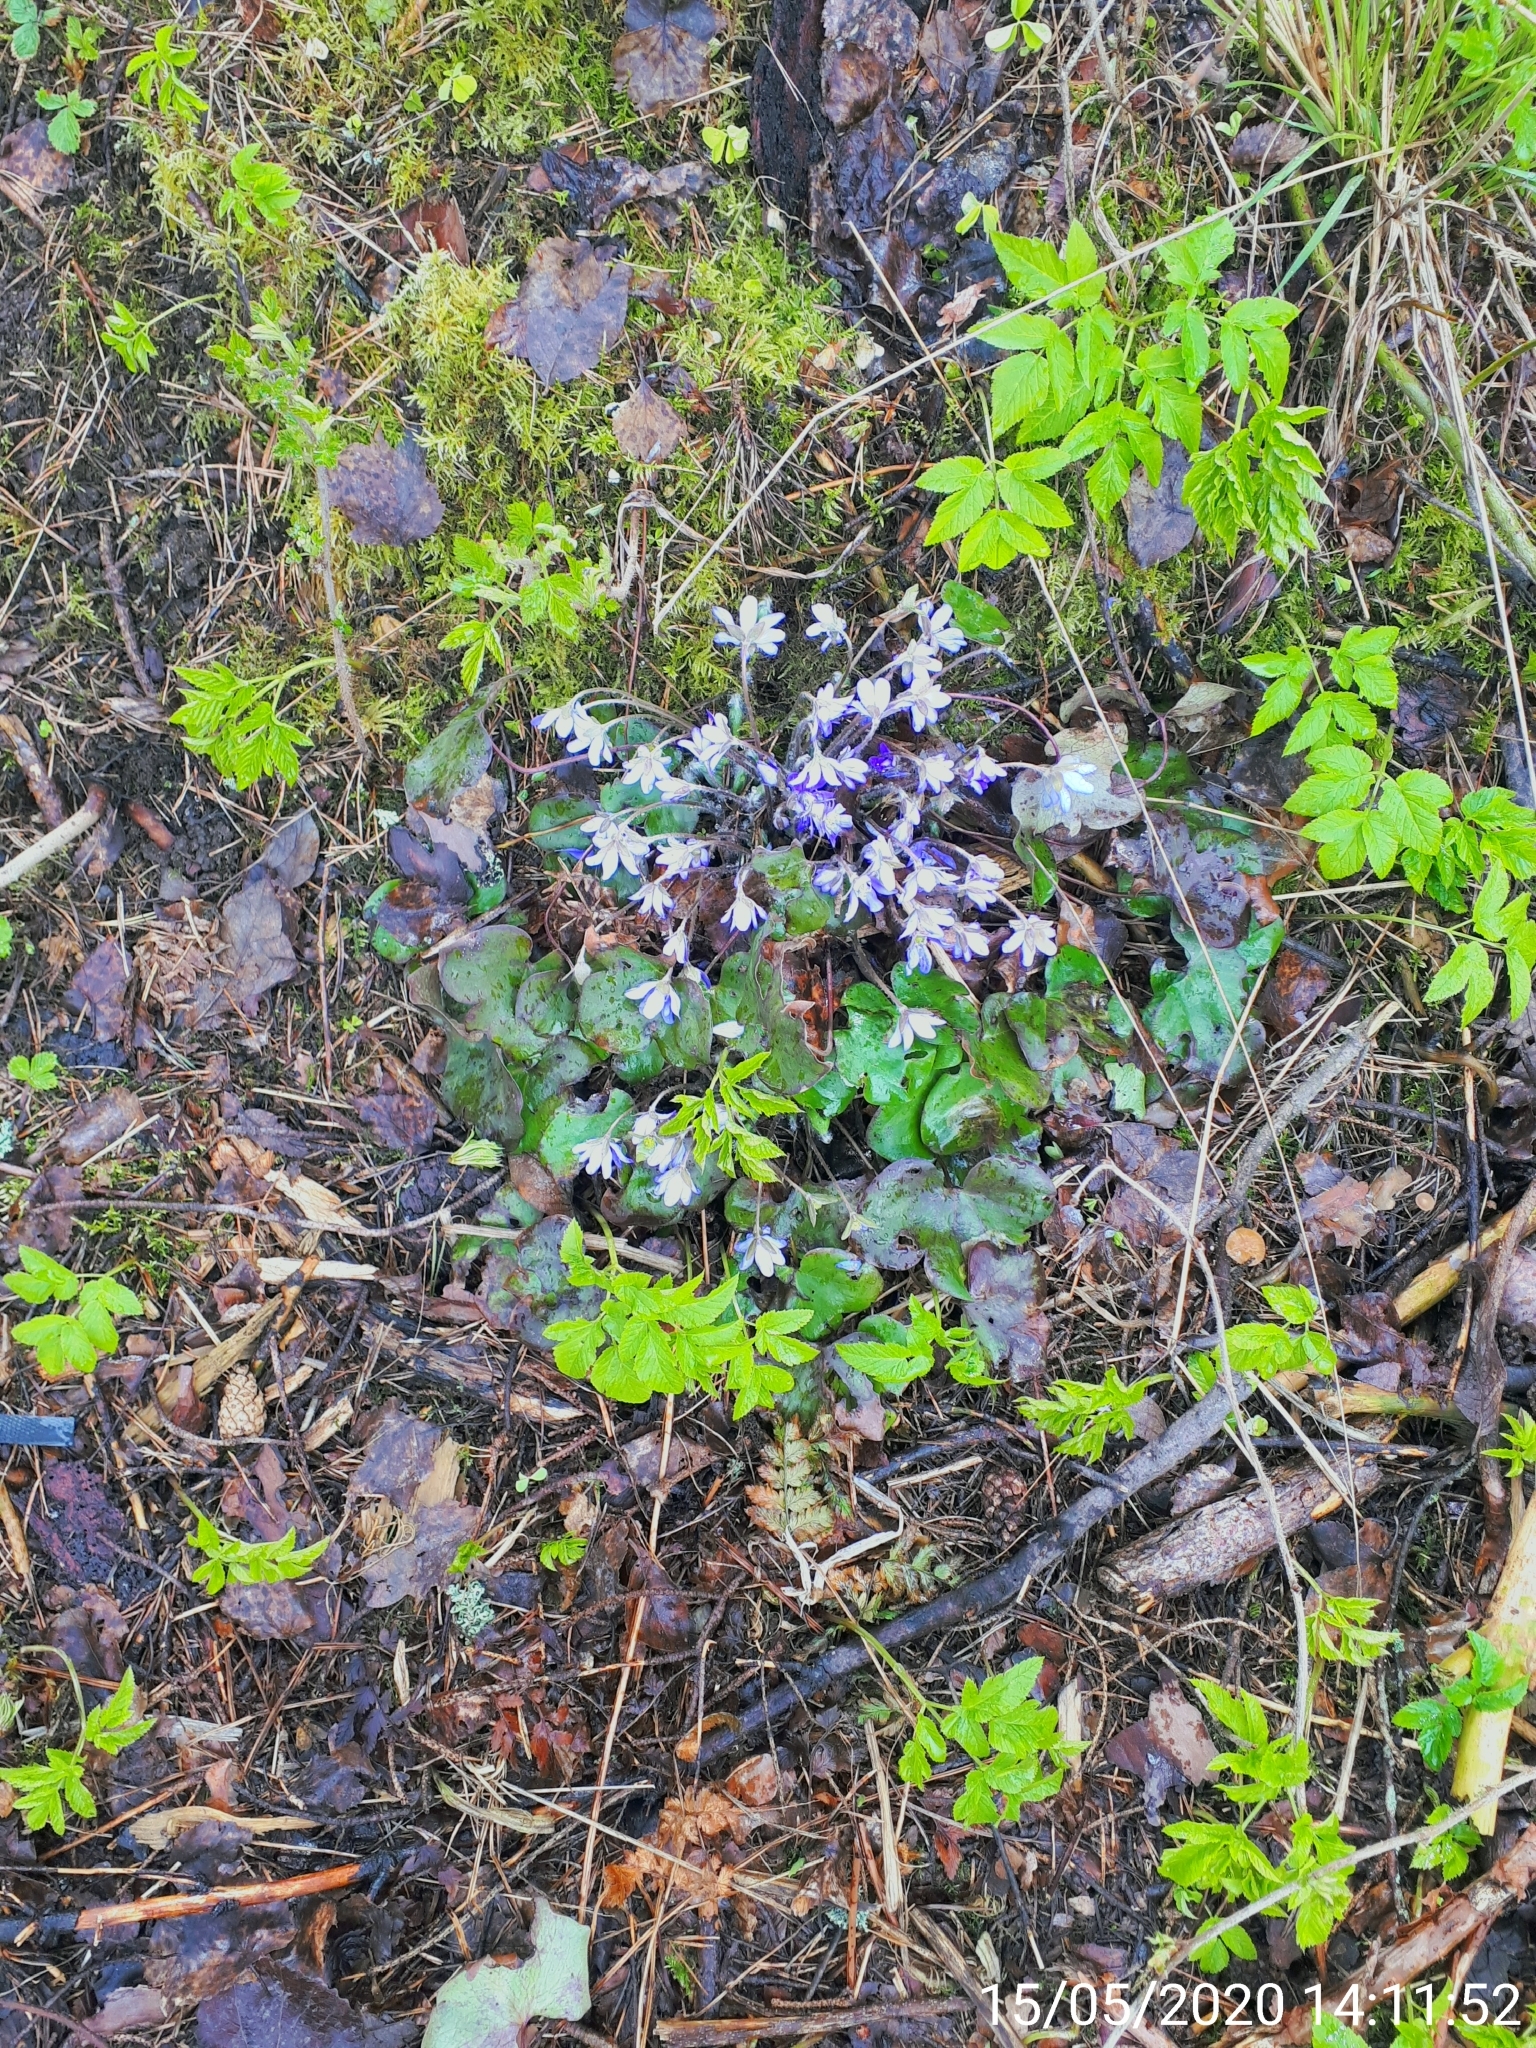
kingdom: Plantae
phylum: Tracheophyta
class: Magnoliopsida
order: Ranunculales
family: Ranunculaceae
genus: Hepatica
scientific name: Hepatica nobilis
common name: Liverleaf
